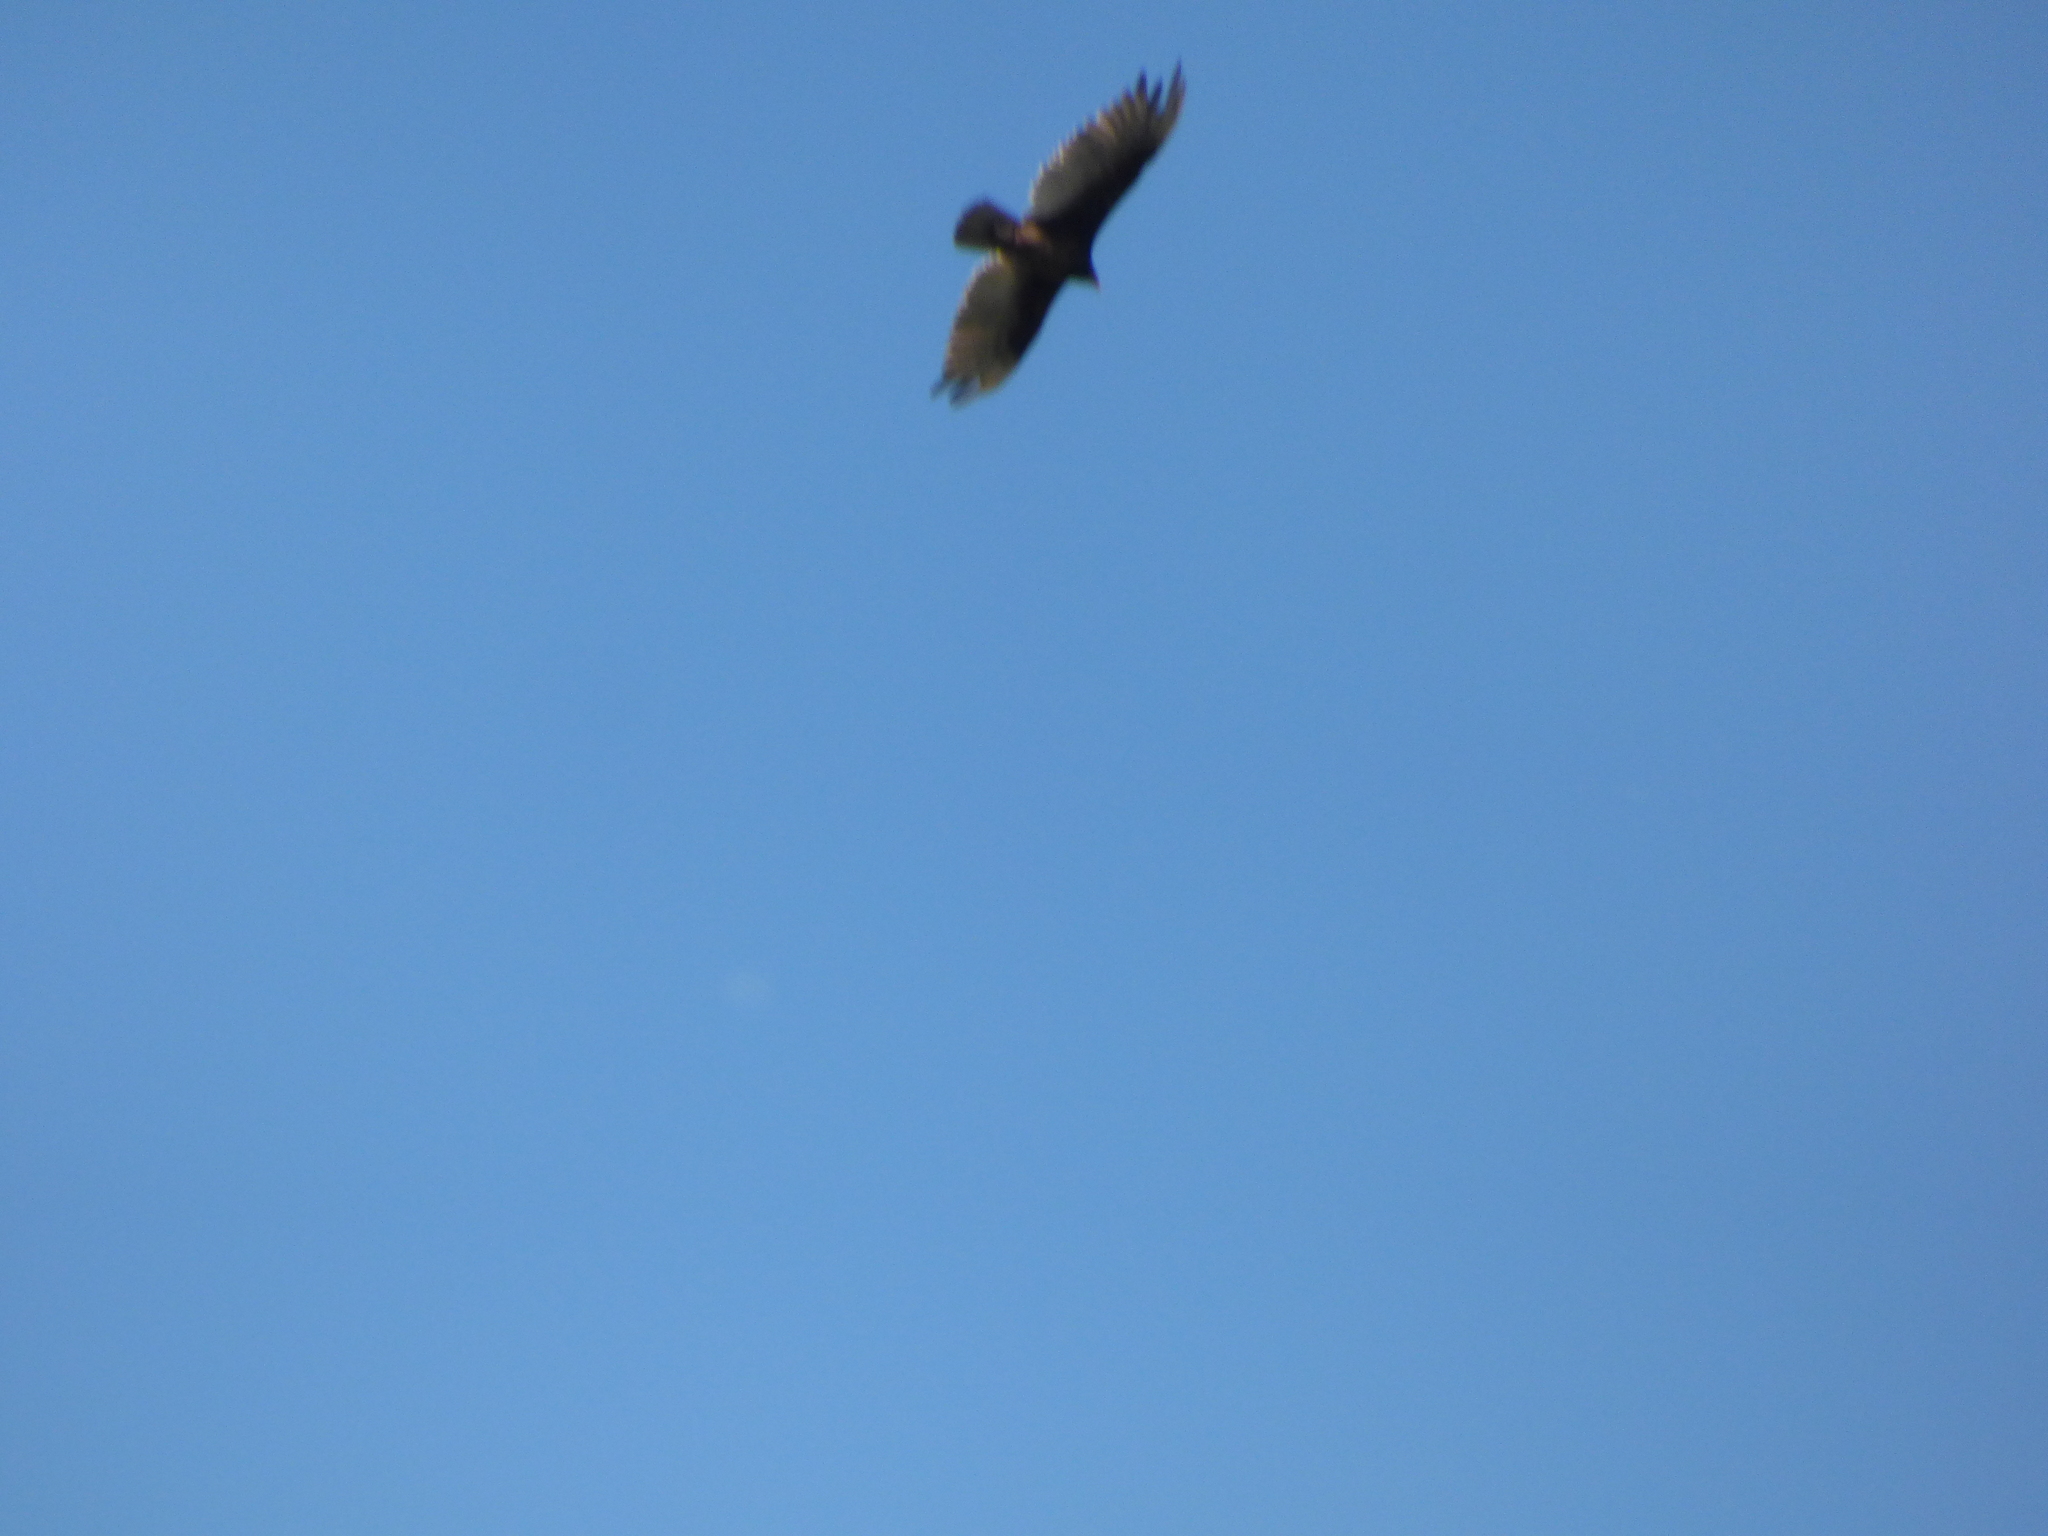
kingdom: Animalia
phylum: Chordata
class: Aves
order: Accipitriformes
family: Cathartidae
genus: Cathartes
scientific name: Cathartes aura
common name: Turkey vulture
